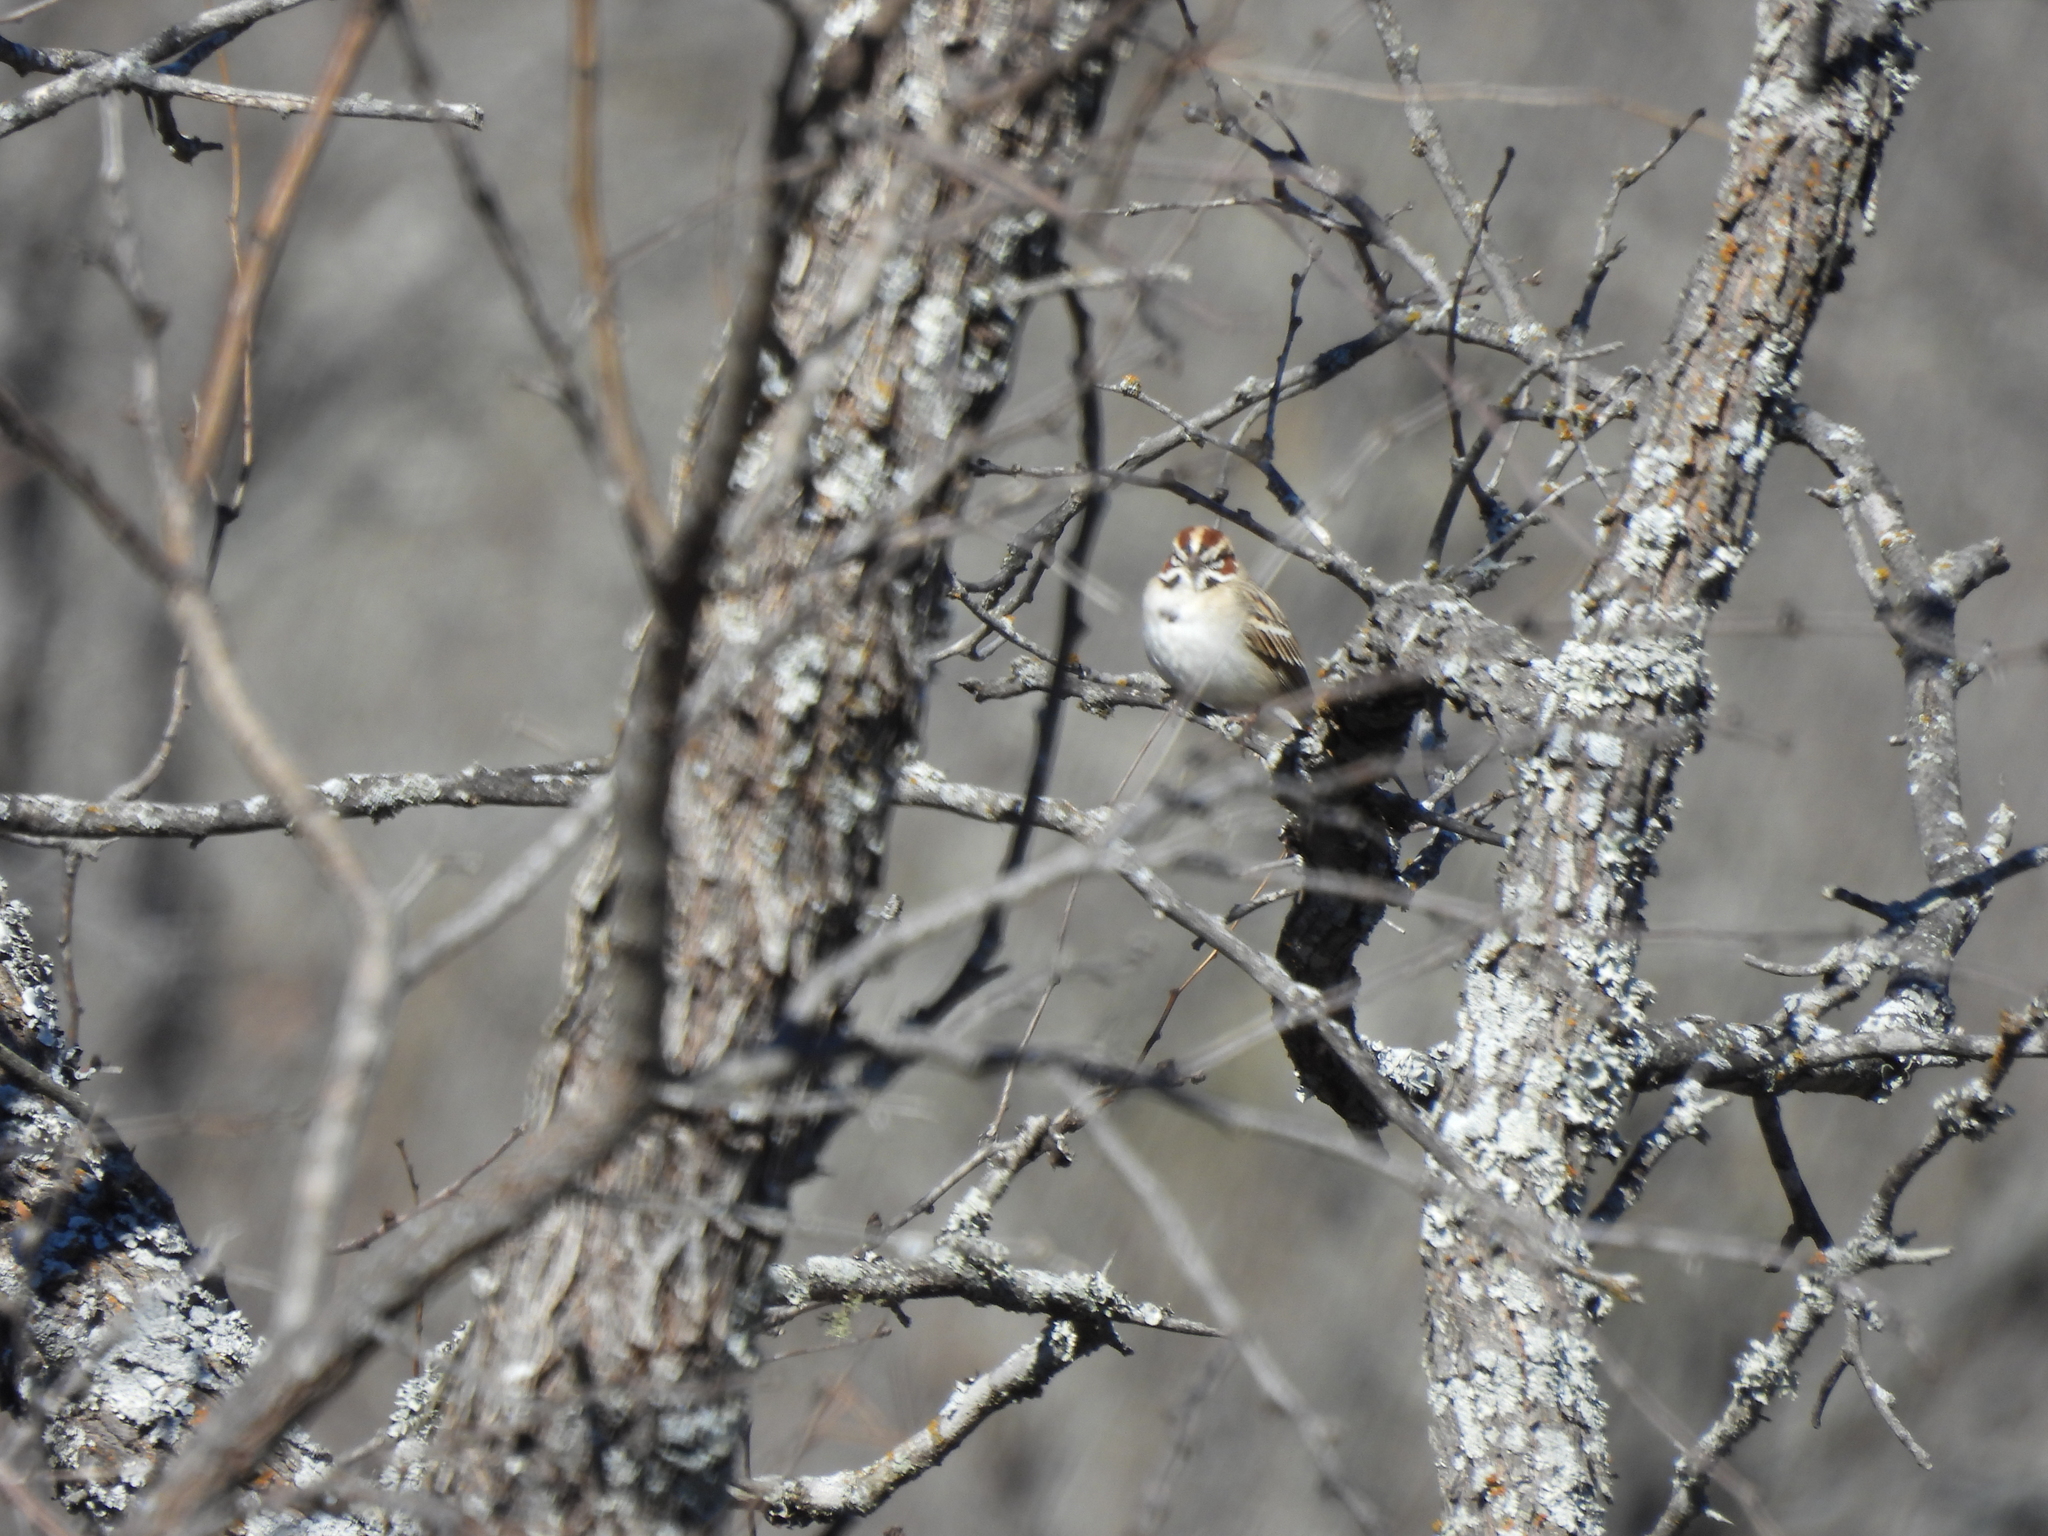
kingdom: Animalia
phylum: Chordata
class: Aves
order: Passeriformes
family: Passerellidae
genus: Chondestes
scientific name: Chondestes grammacus
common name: Lark sparrow
